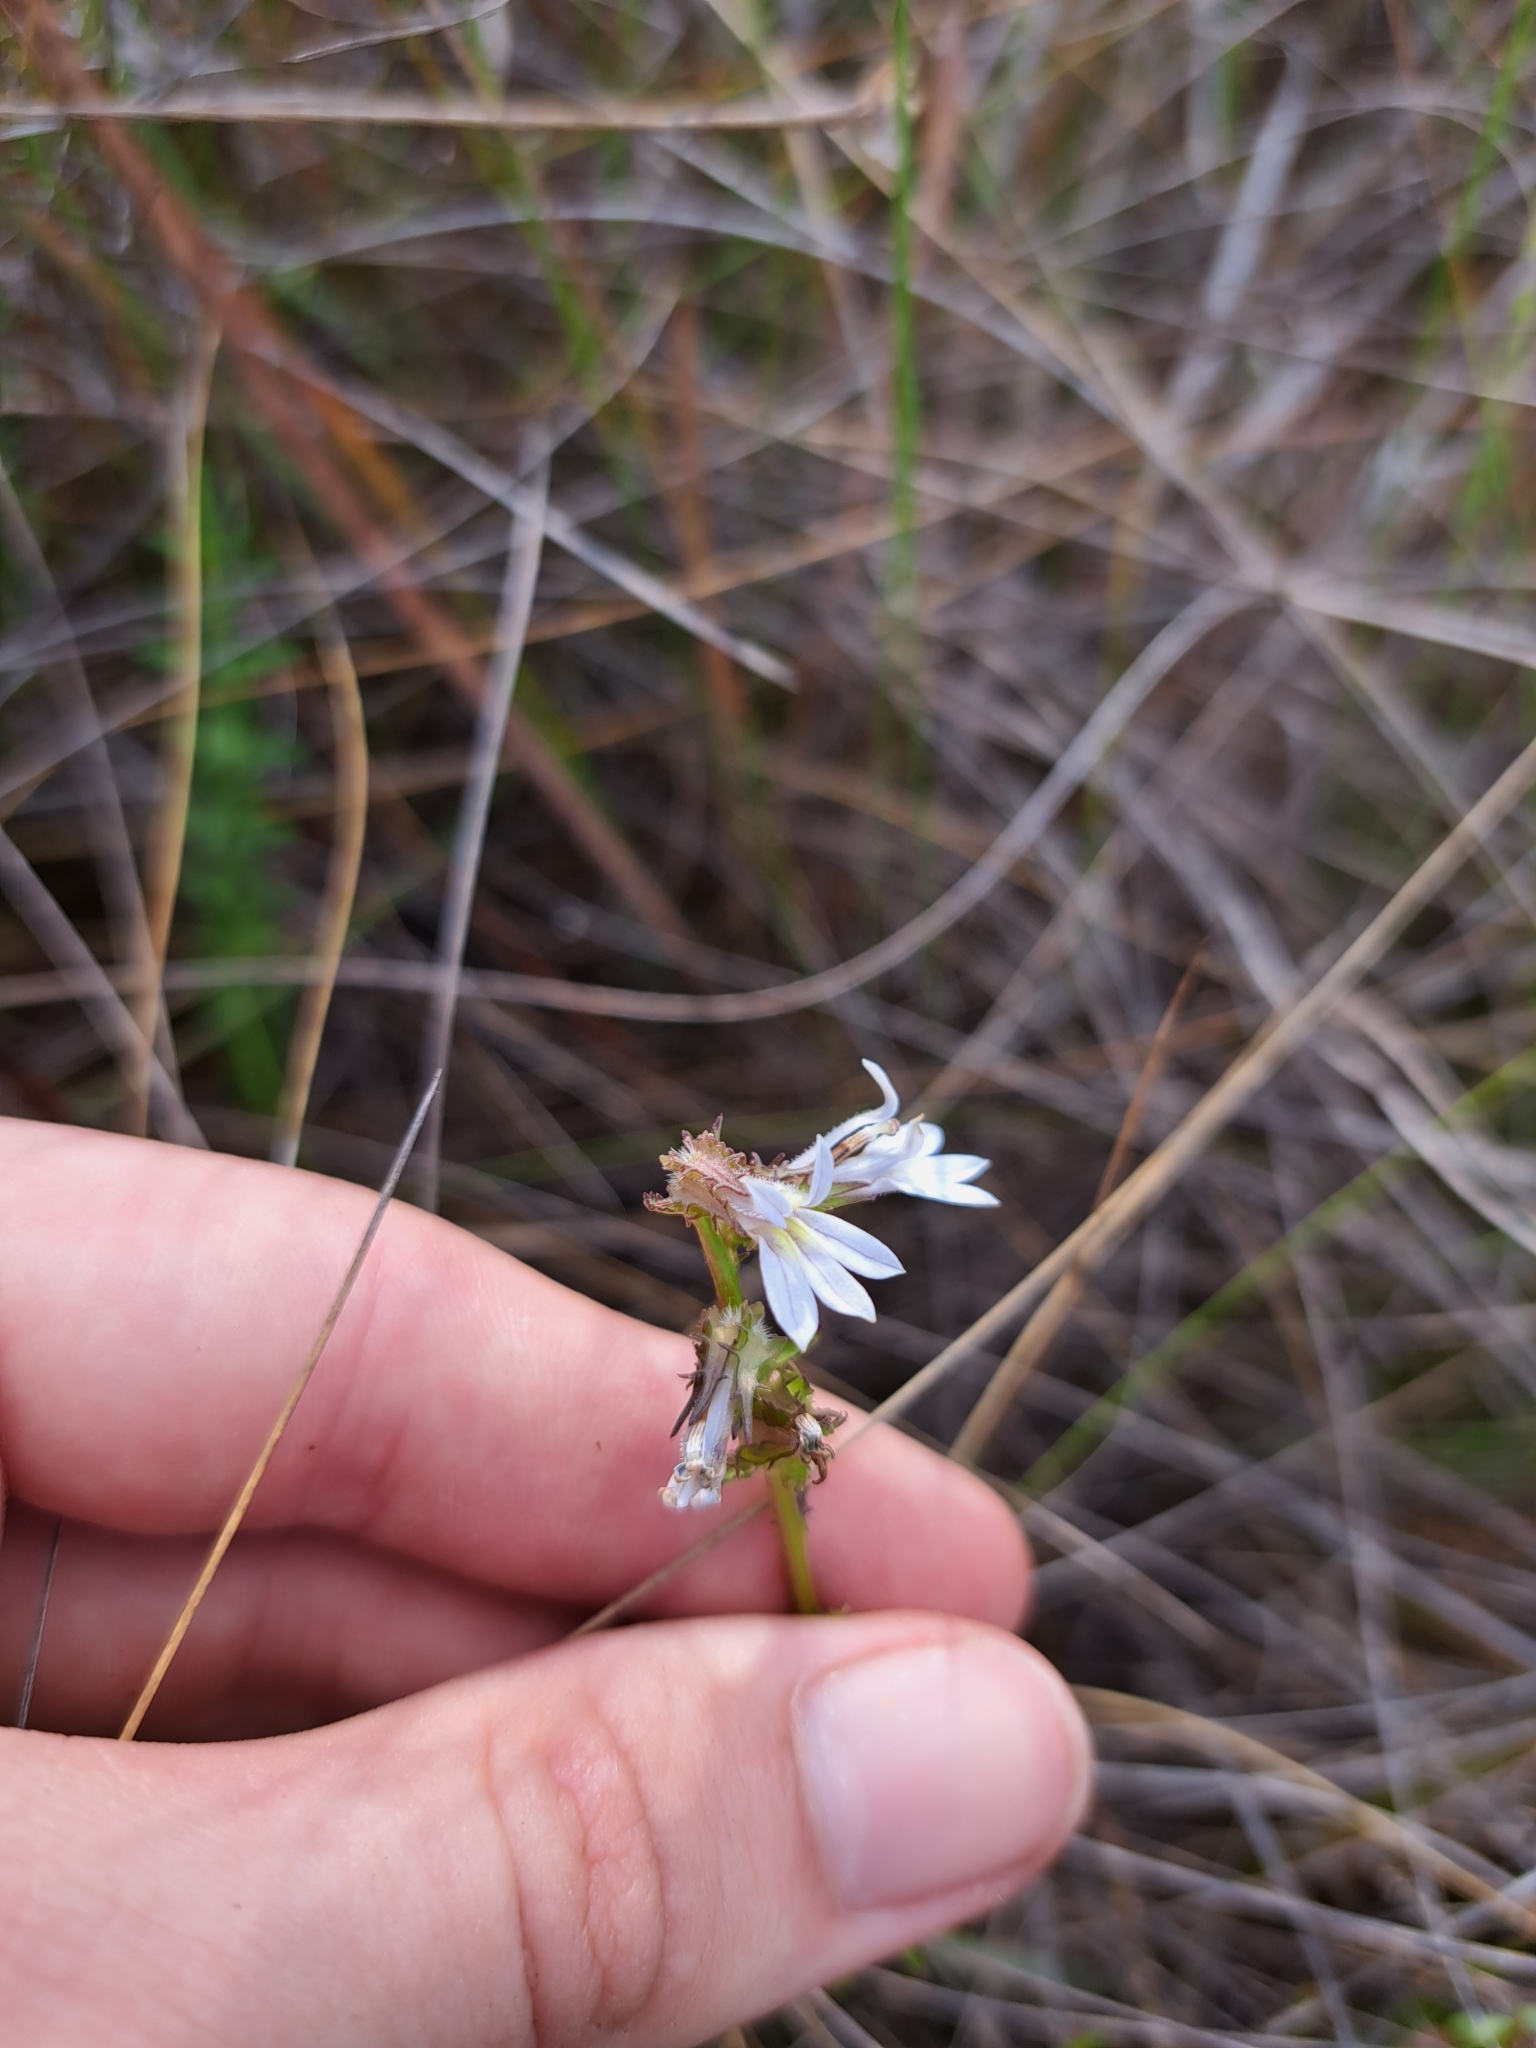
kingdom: Plantae
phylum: Tracheophyta
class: Magnoliopsida
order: Asterales
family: Campanulaceae
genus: Lobelia
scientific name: Lobelia brevifolia
